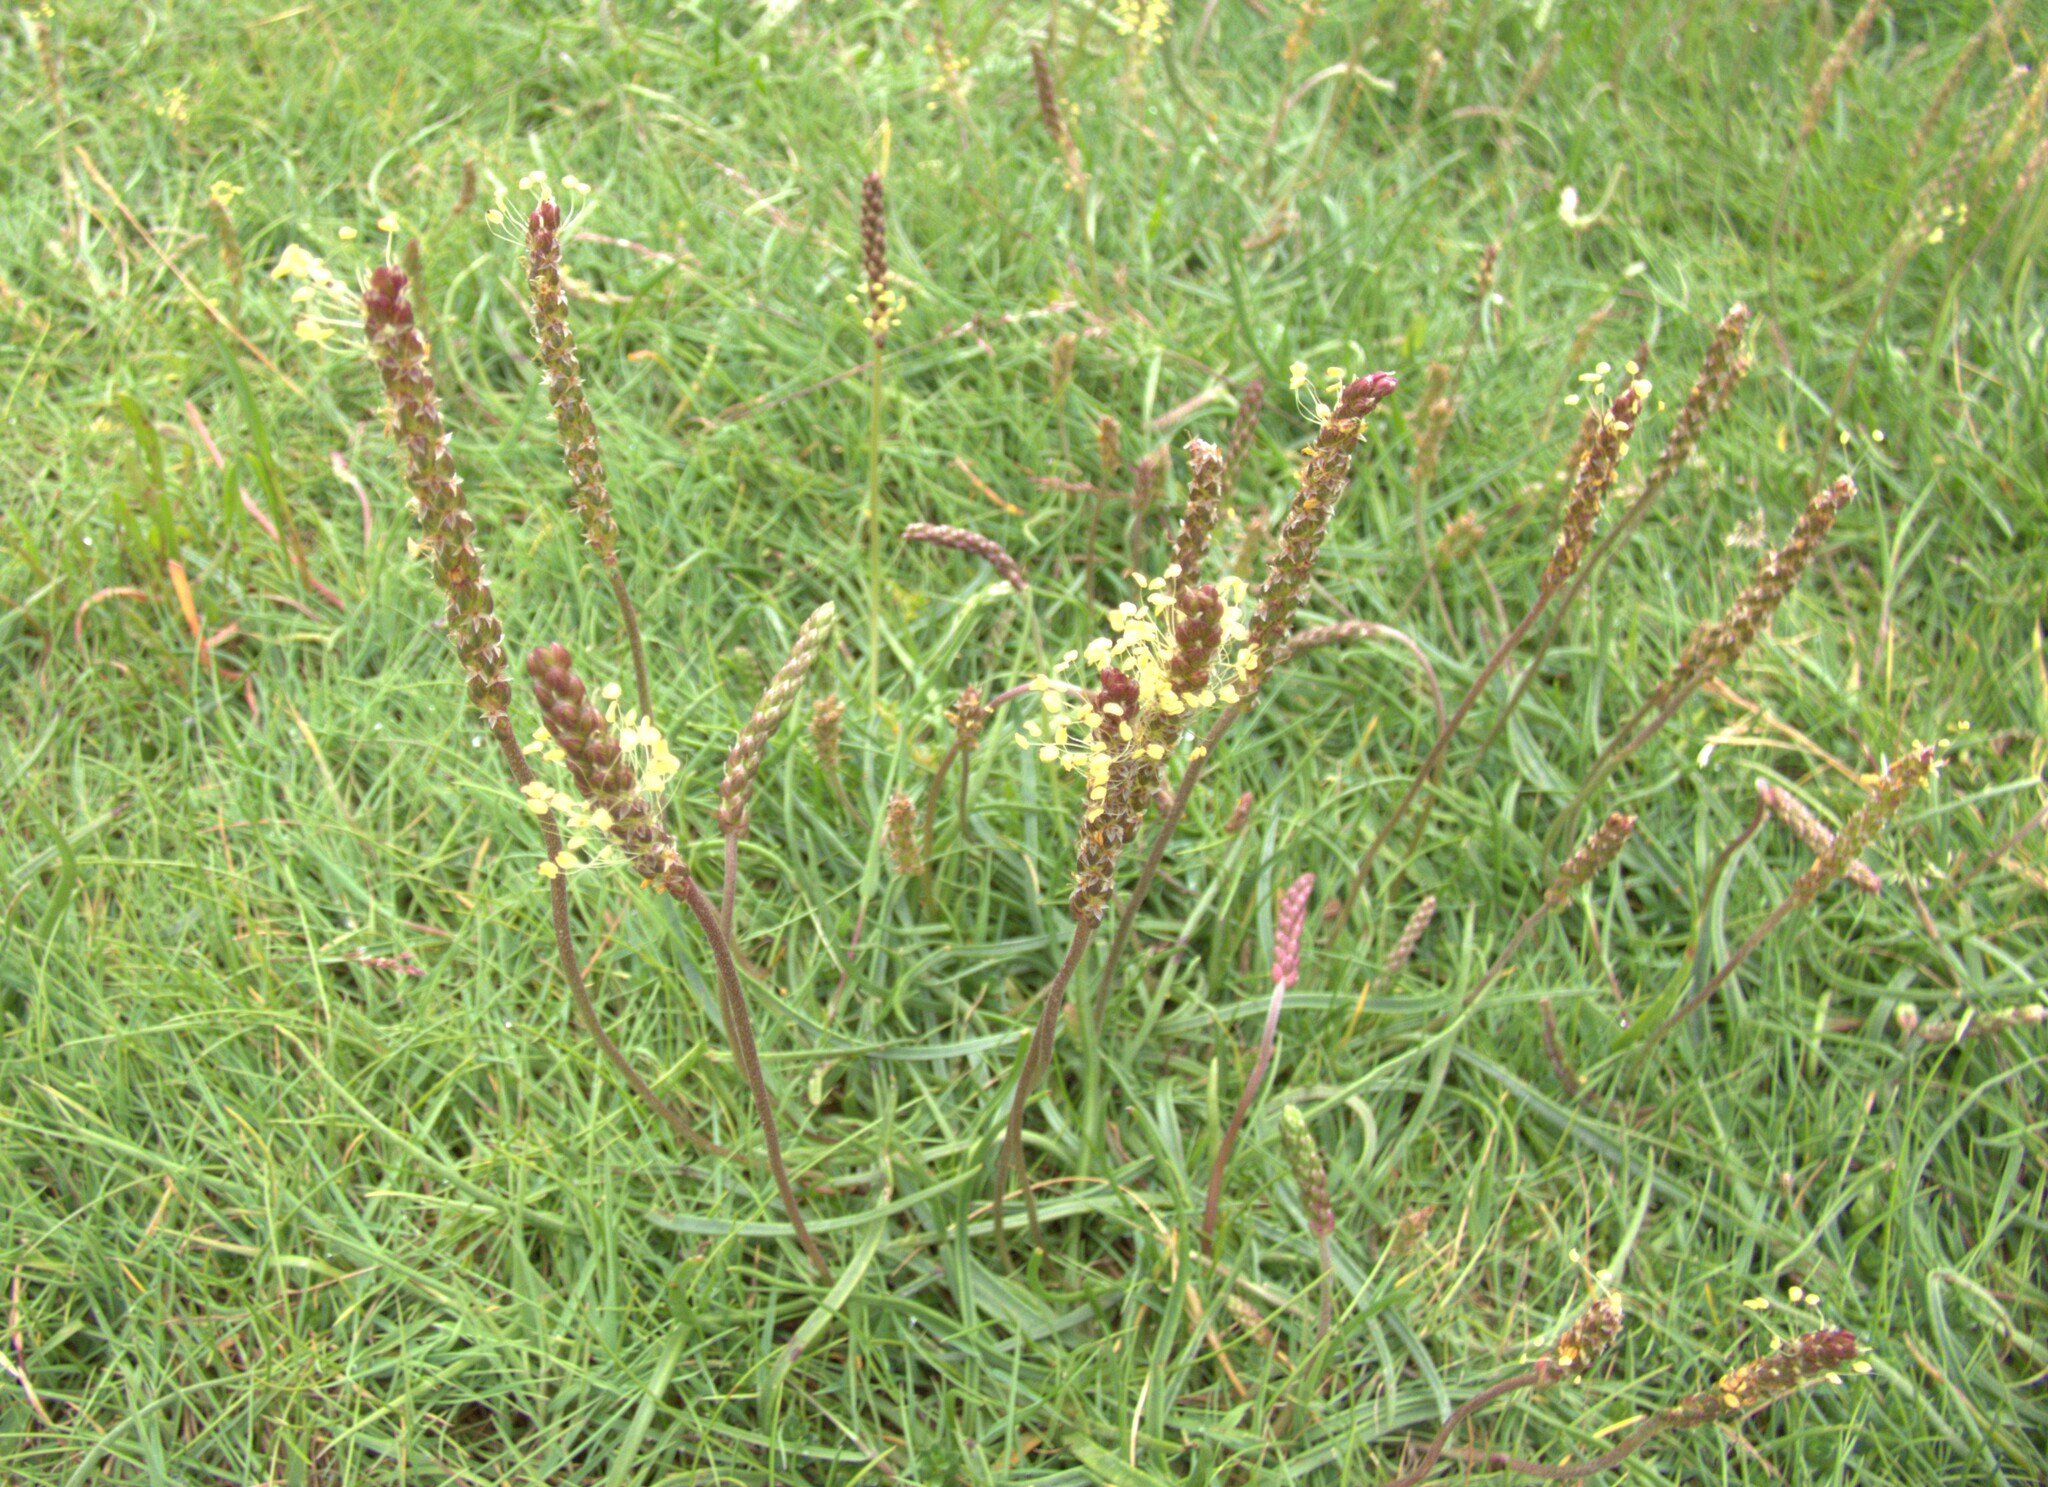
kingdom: Plantae
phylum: Tracheophyta
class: Magnoliopsida
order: Lamiales
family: Plantaginaceae
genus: Plantago
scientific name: Plantago maritima
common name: Sea plantain
